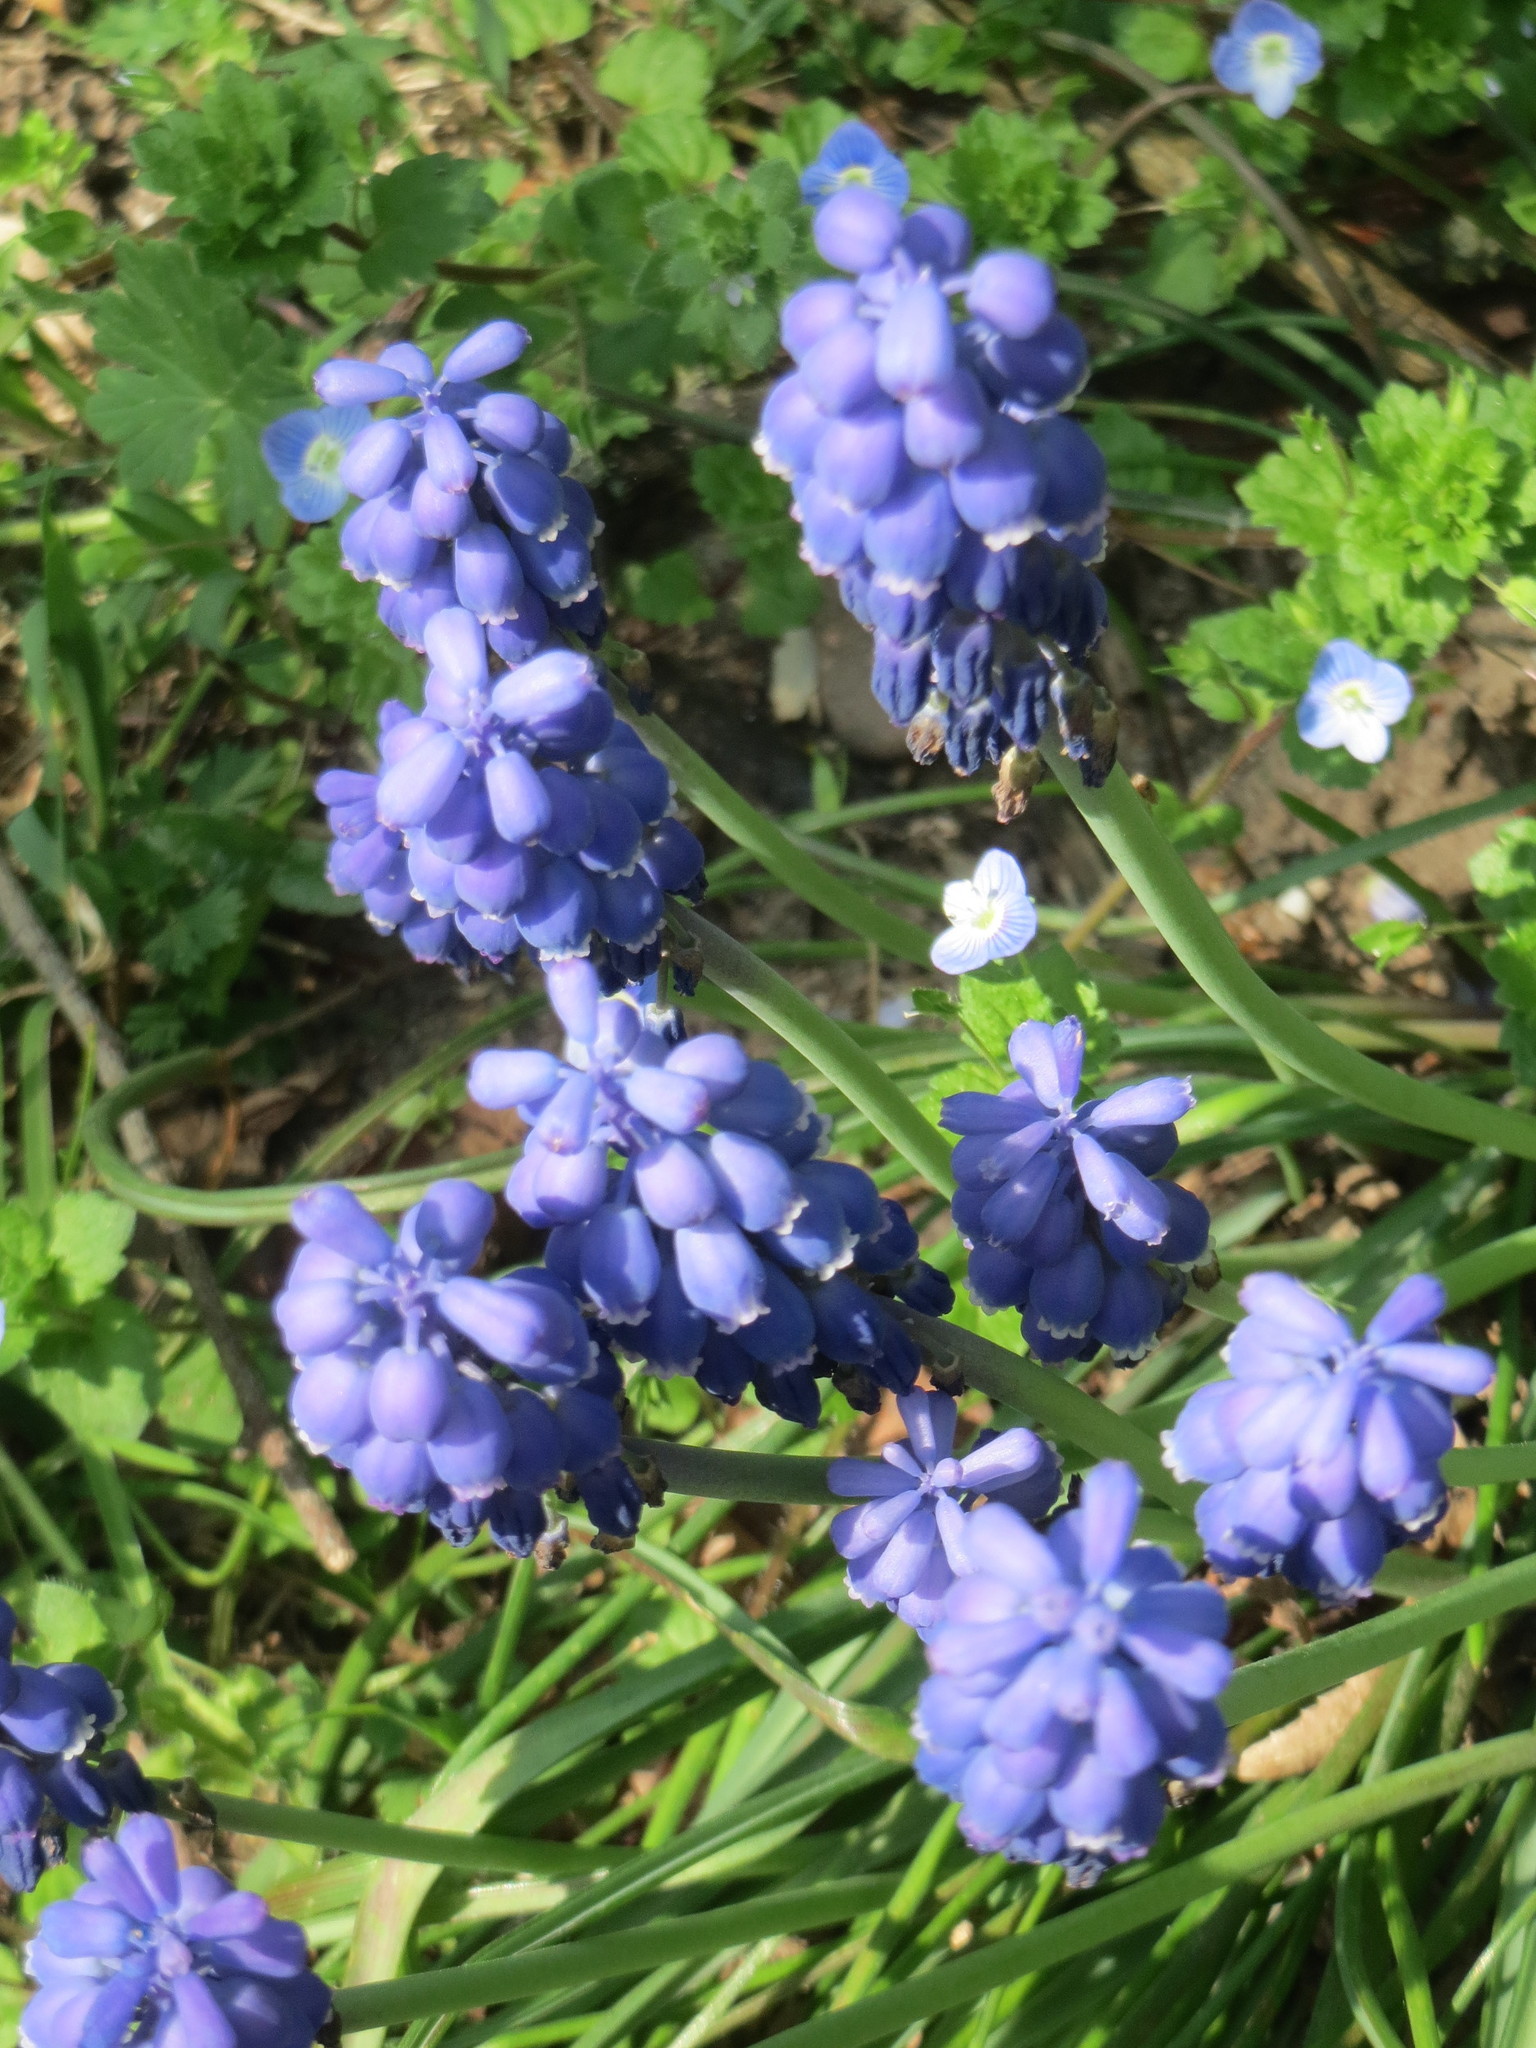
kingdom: Plantae
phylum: Tracheophyta
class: Liliopsida
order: Asparagales
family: Asparagaceae
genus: Muscari
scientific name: Muscari armeniacum
